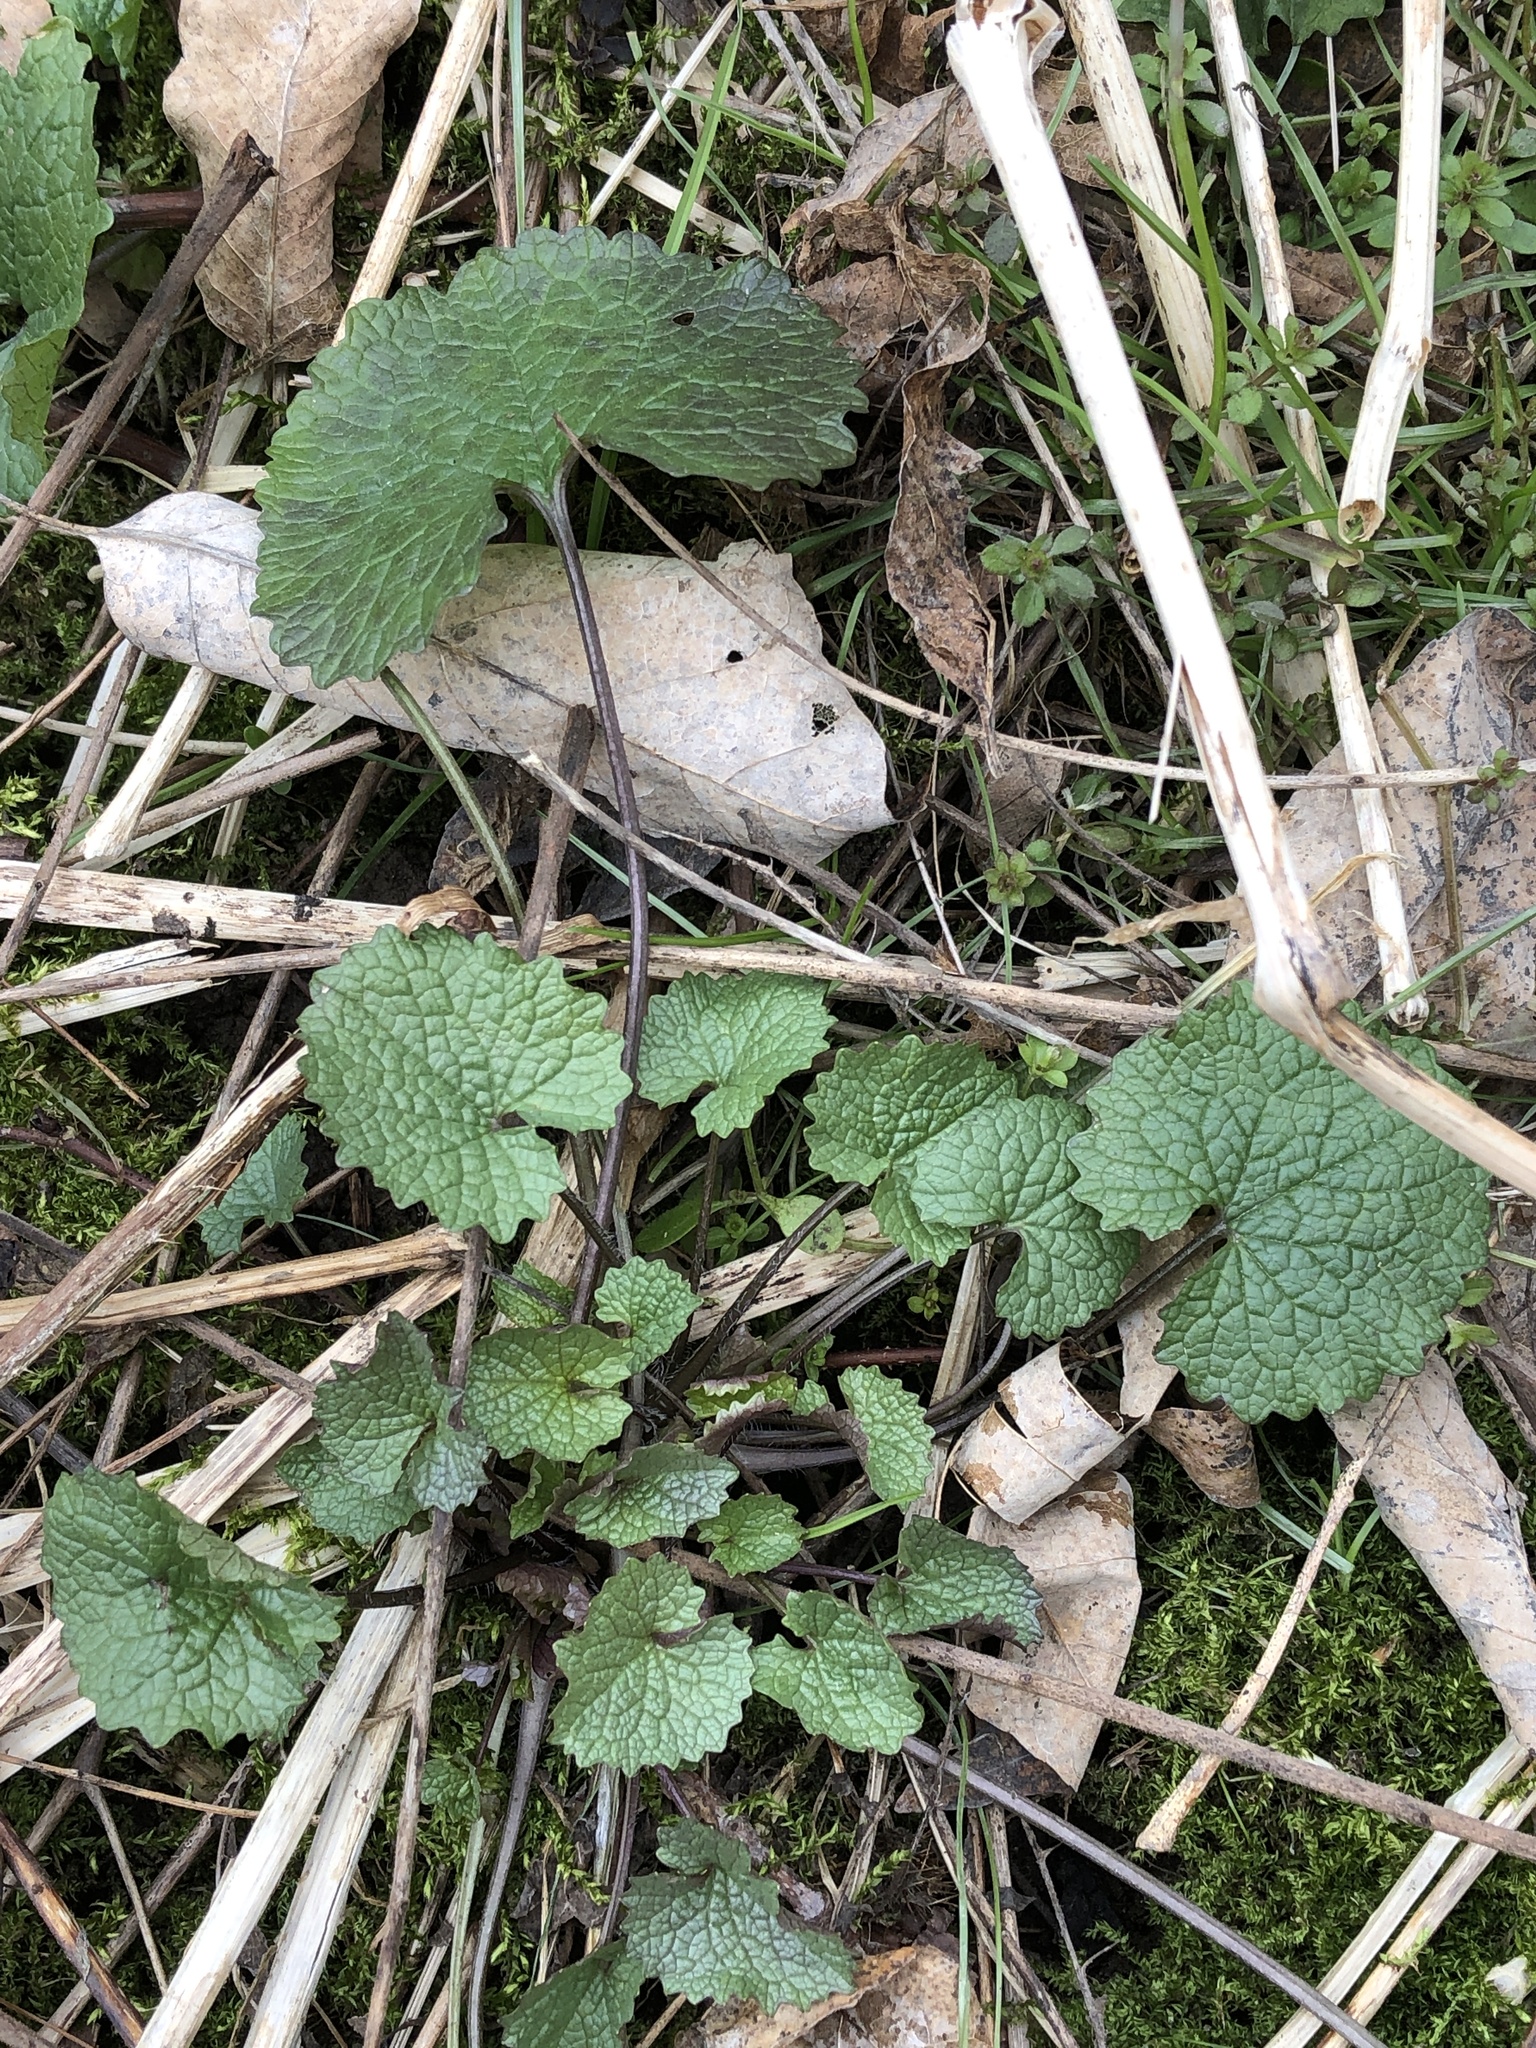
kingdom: Plantae
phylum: Tracheophyta
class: Magnoliopsida
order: Brassicales
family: Brassicaceae
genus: Alliaria
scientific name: Alliaria petiolata
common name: Garlic mustard
